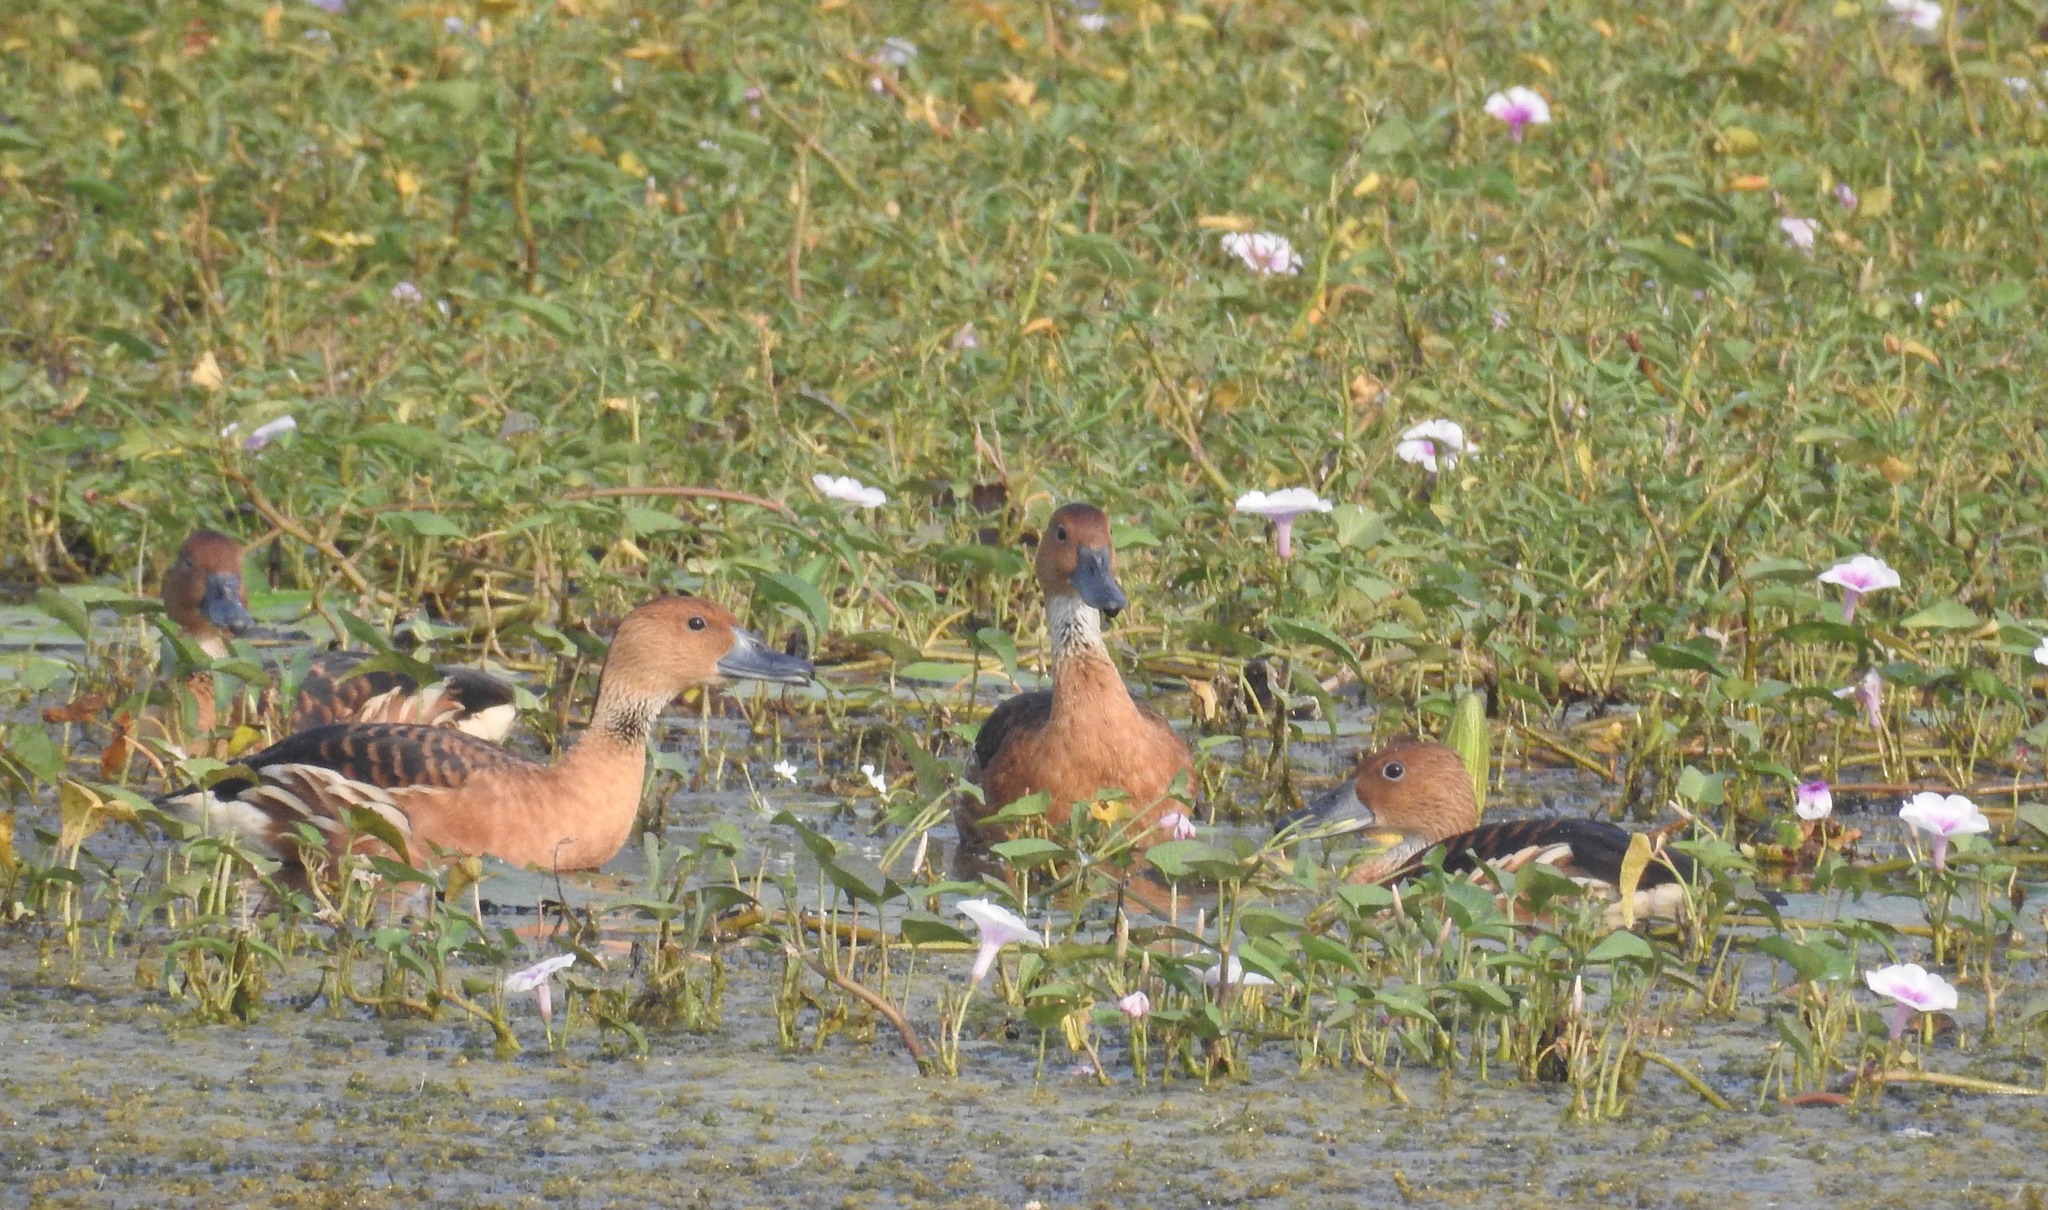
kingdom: Animalia
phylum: Chordata
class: Aves
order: Anseriformes
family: Anatidae
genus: Dendrocygna
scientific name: Dendrocygna bicolor
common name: Fulvous whistling duck
